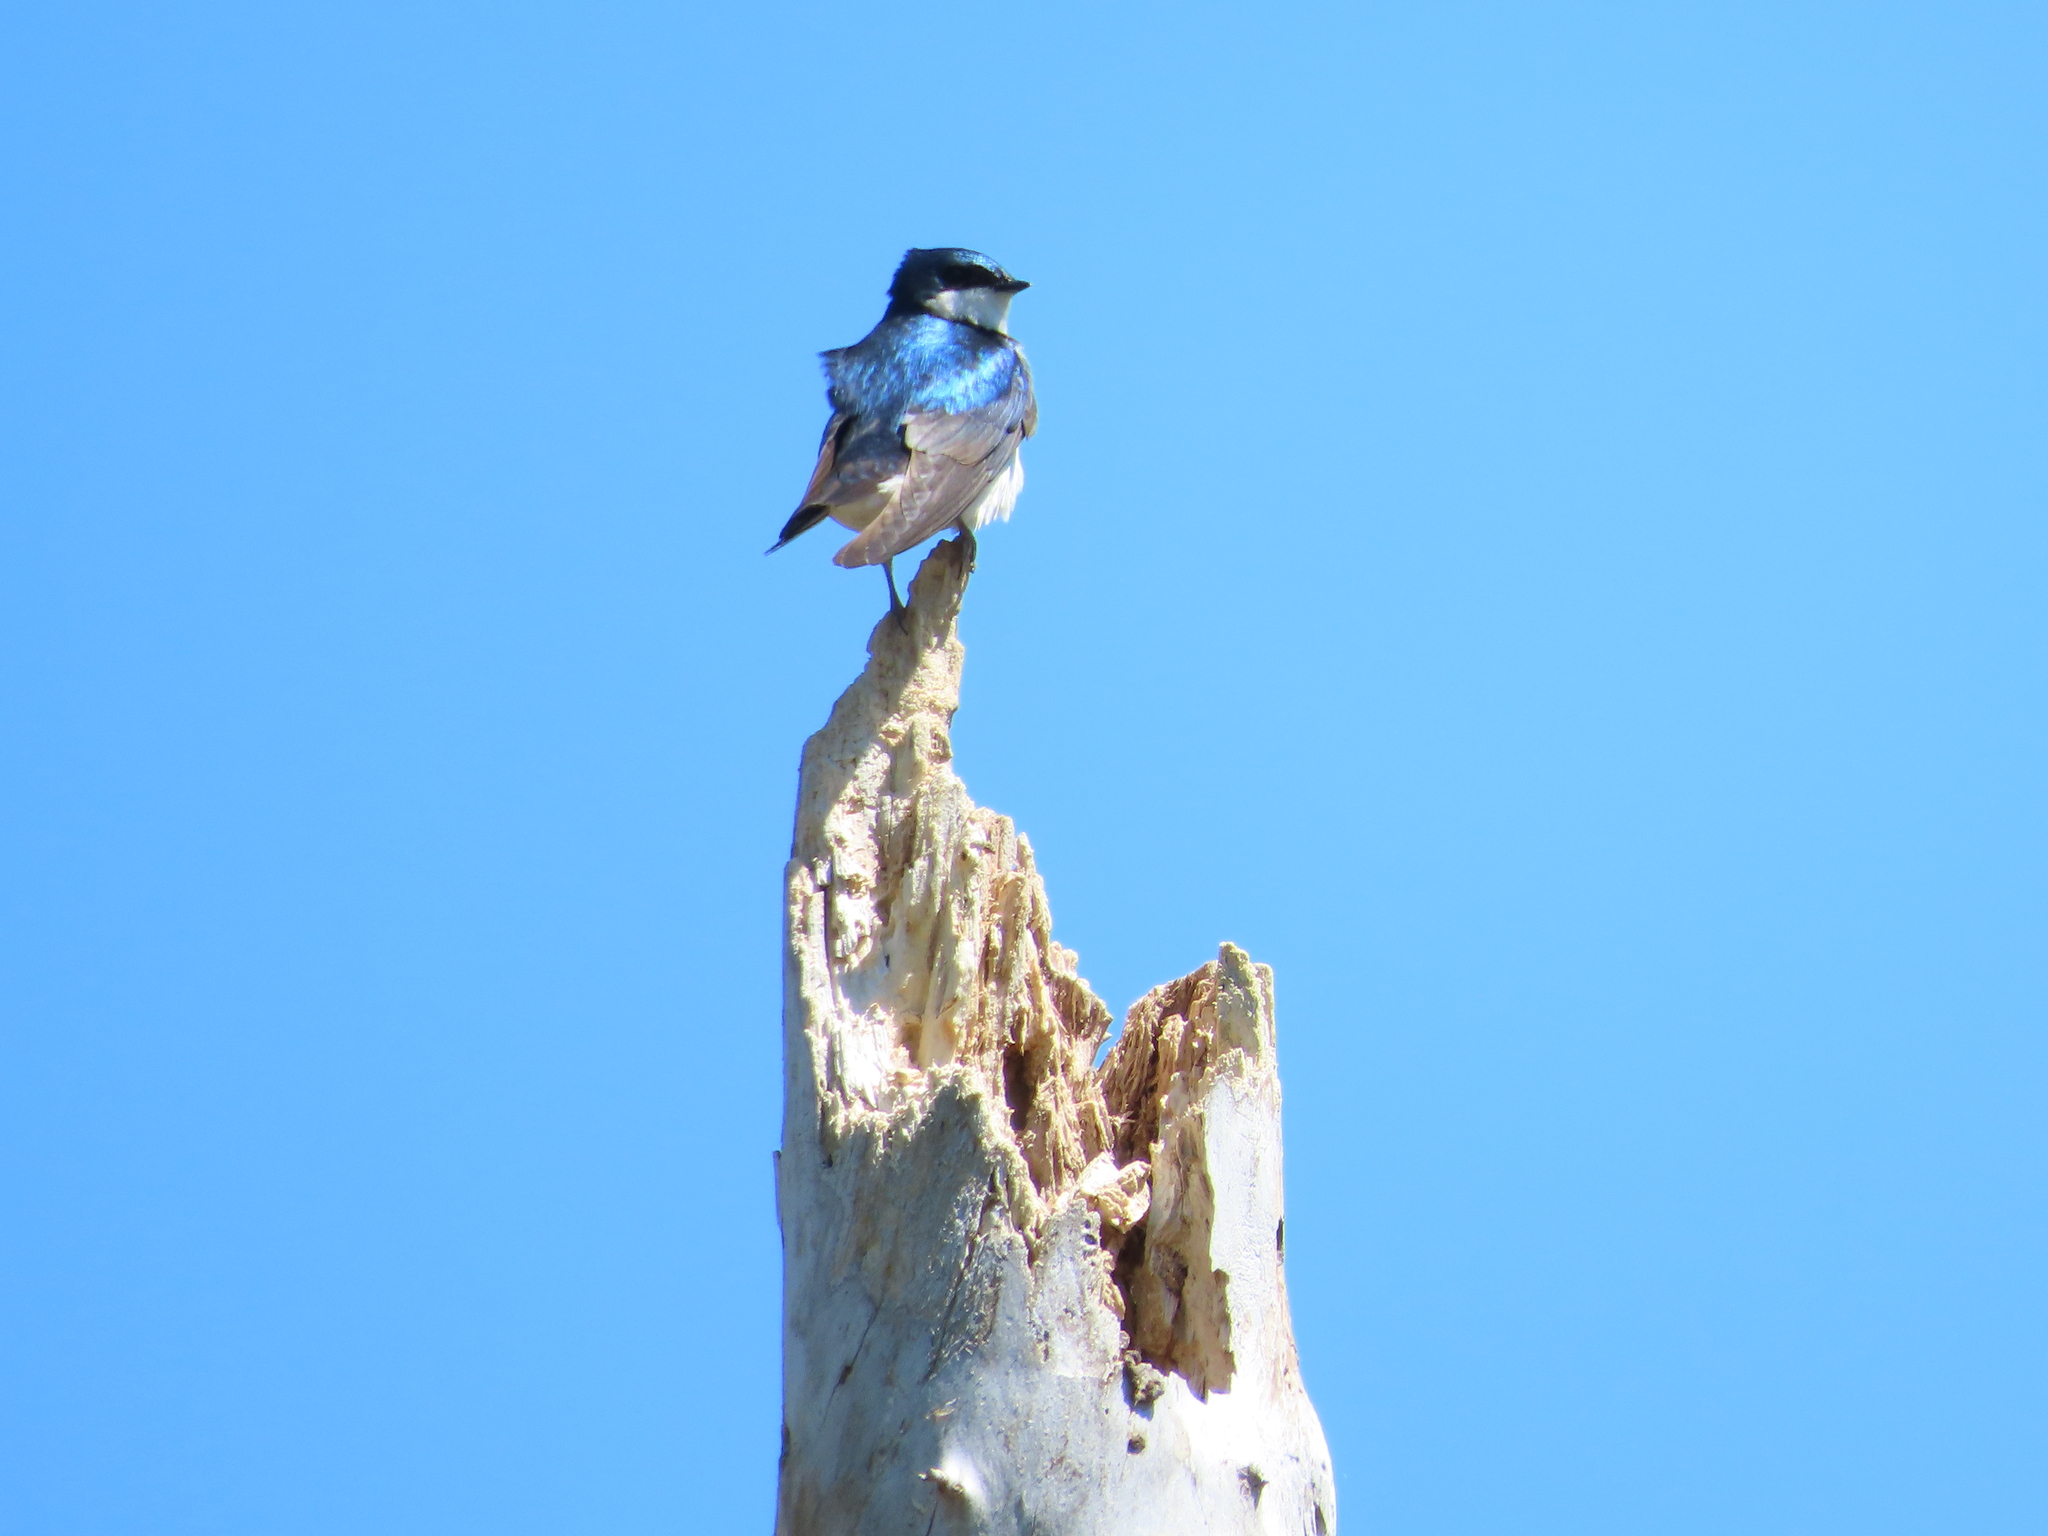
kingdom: Animalia
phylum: Chordata
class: Aves
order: Passeriformes
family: Hirundinidae
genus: Tachycineta
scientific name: Tachycineta bicolor
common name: Tree swallow
